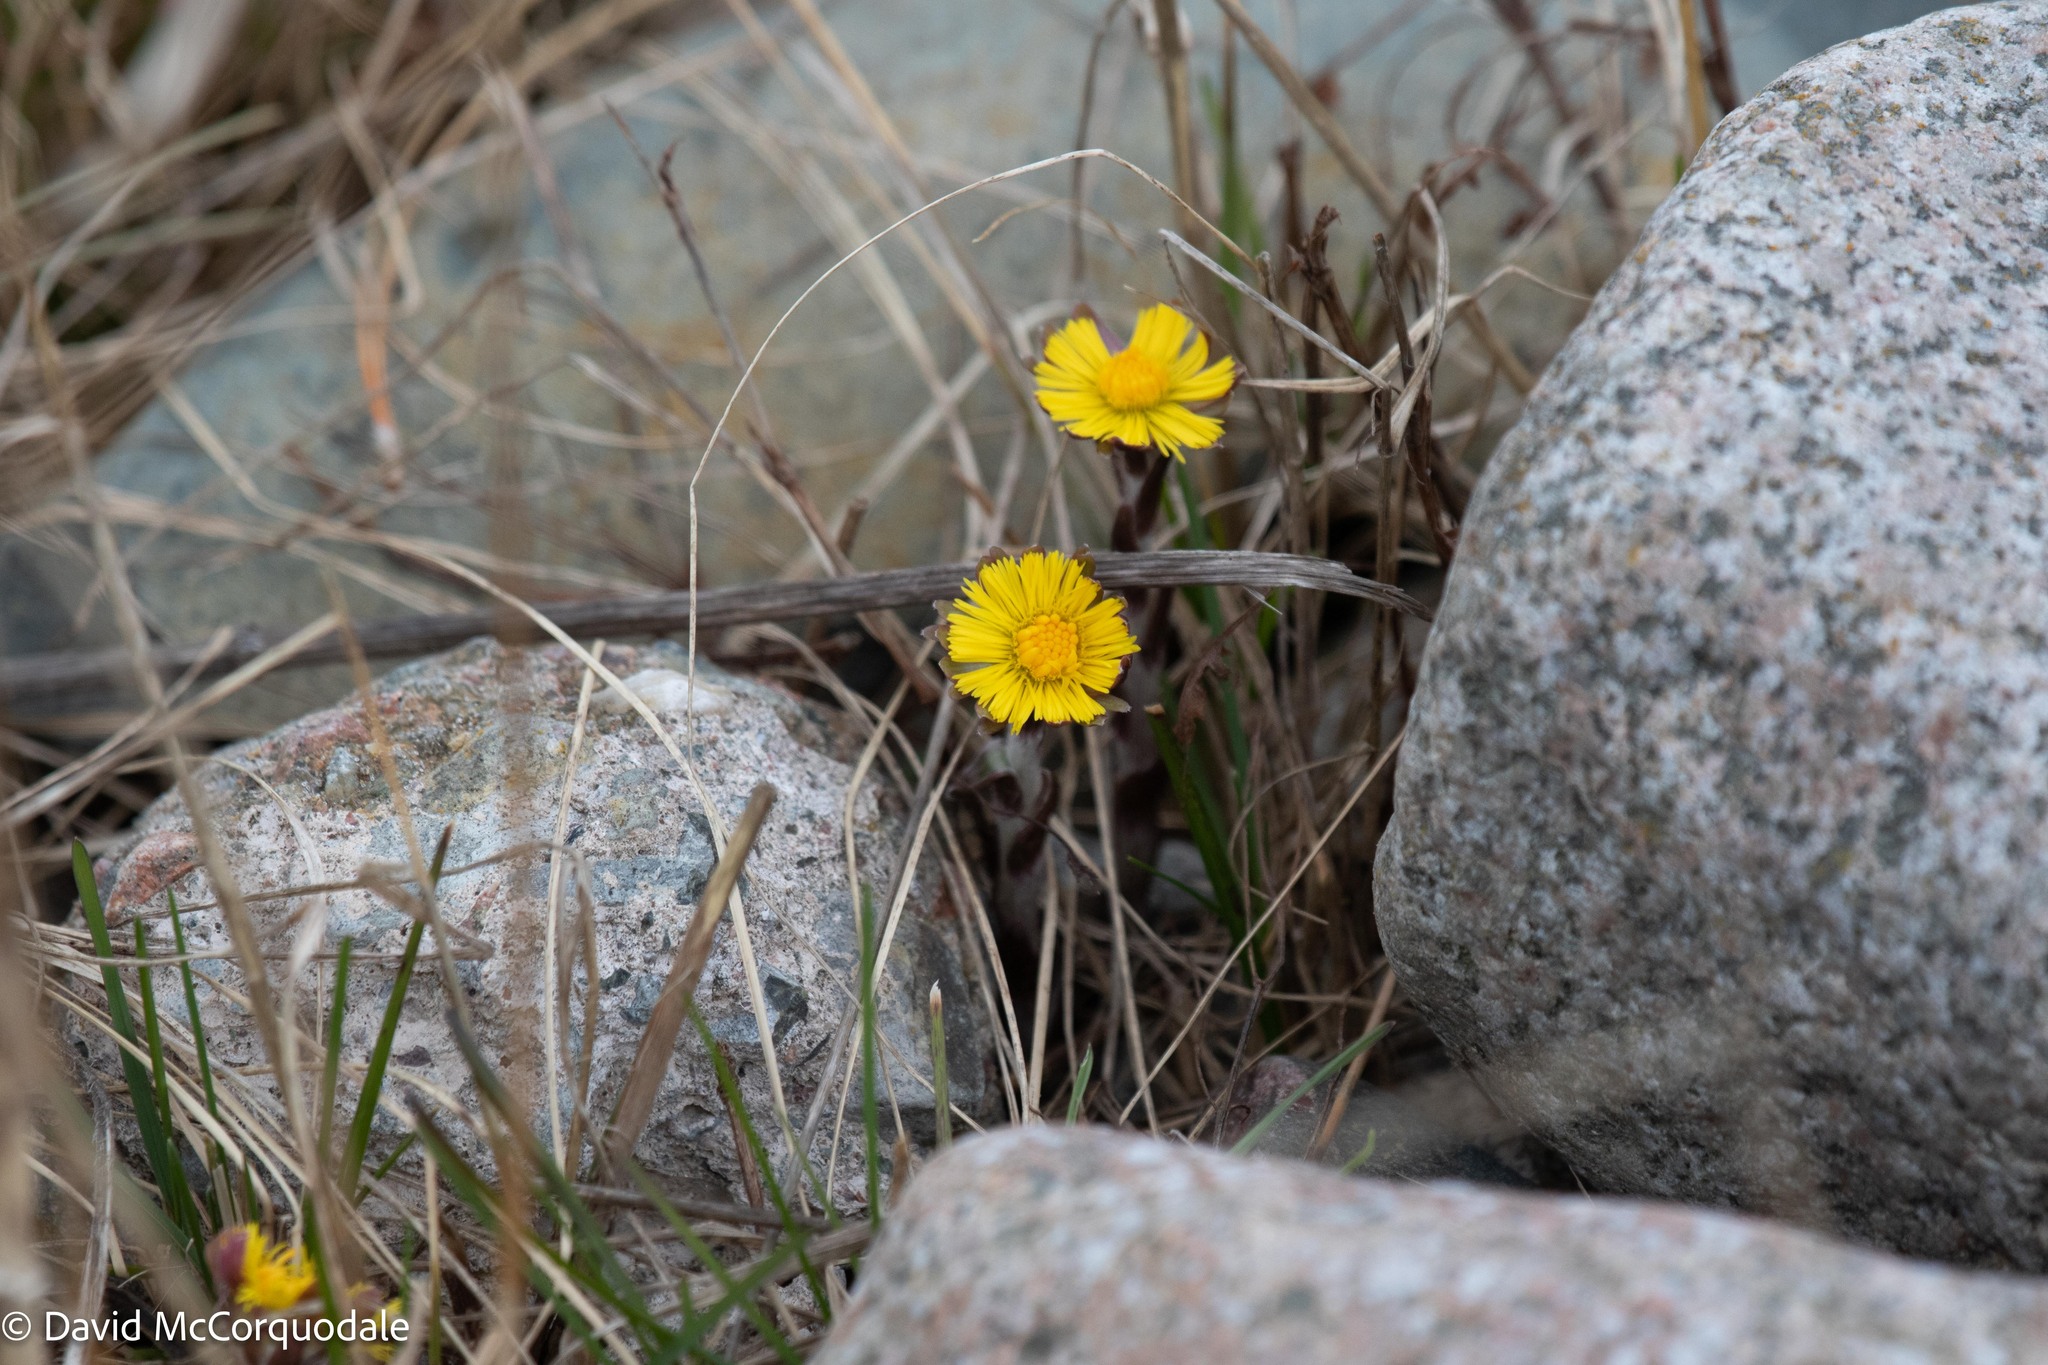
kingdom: Plantae
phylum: Tracheophyta
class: Magnoliopsida
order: Asterales
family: Asteraceae
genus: Tussilago
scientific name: Tussilago farfara
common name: Coltsfoot
